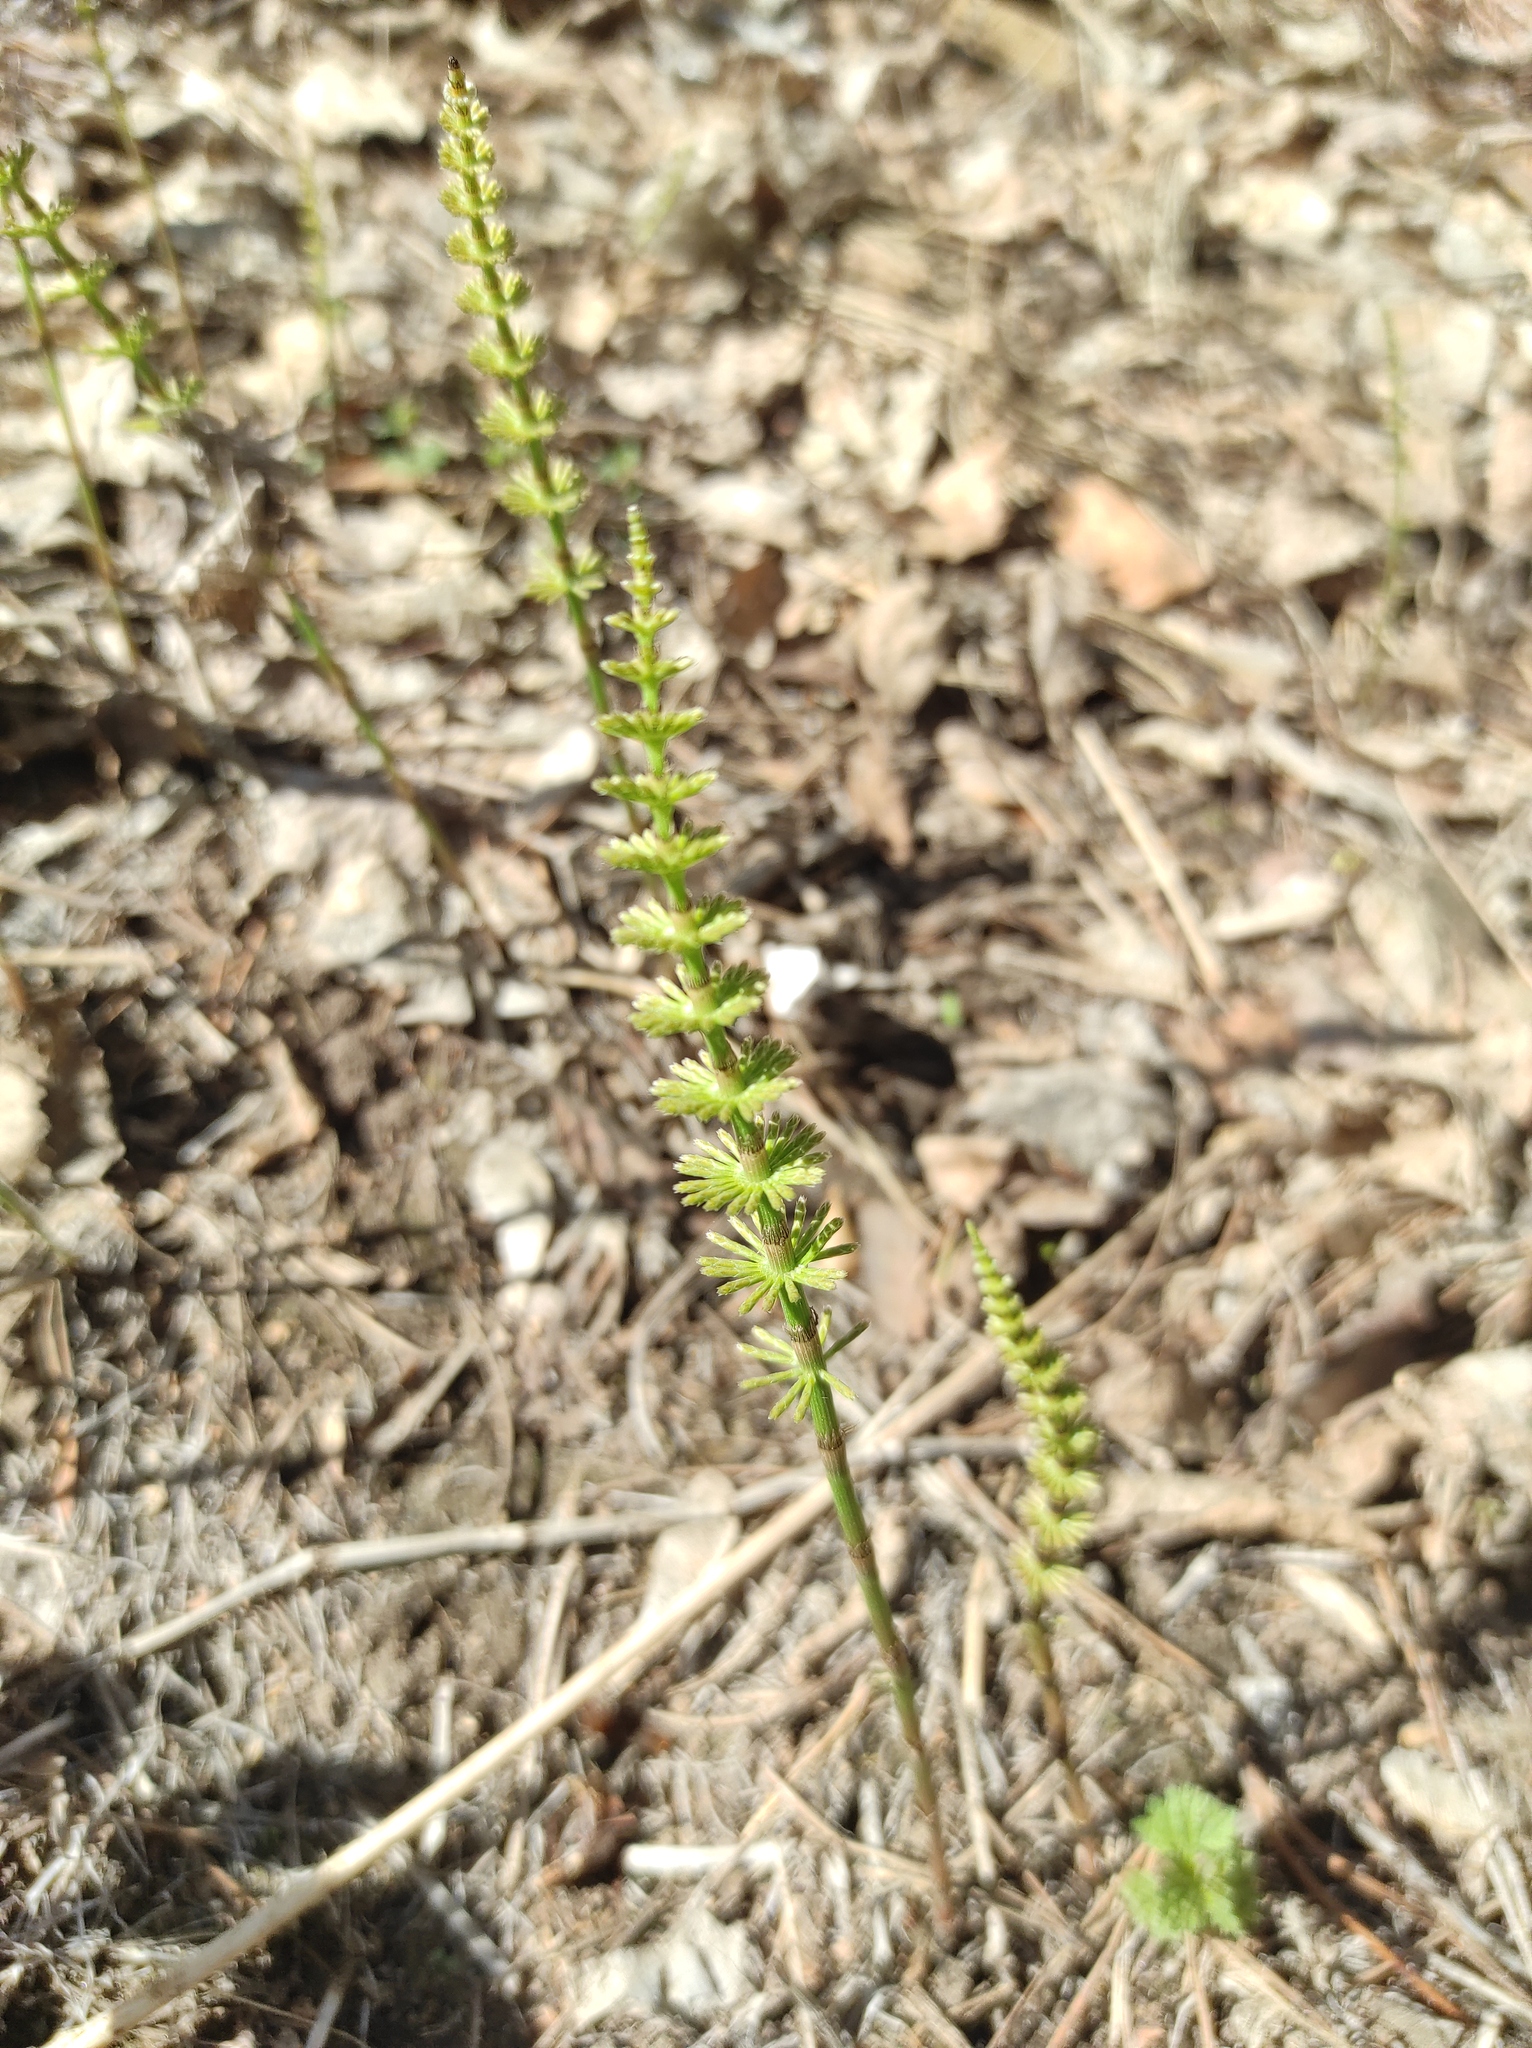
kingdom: Plantae
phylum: Tracheophyta
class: Polypodiopsida
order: Equisetales
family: Equisetaceae
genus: Equisetum
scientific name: Equisetum pratense
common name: Meadow horsetail
